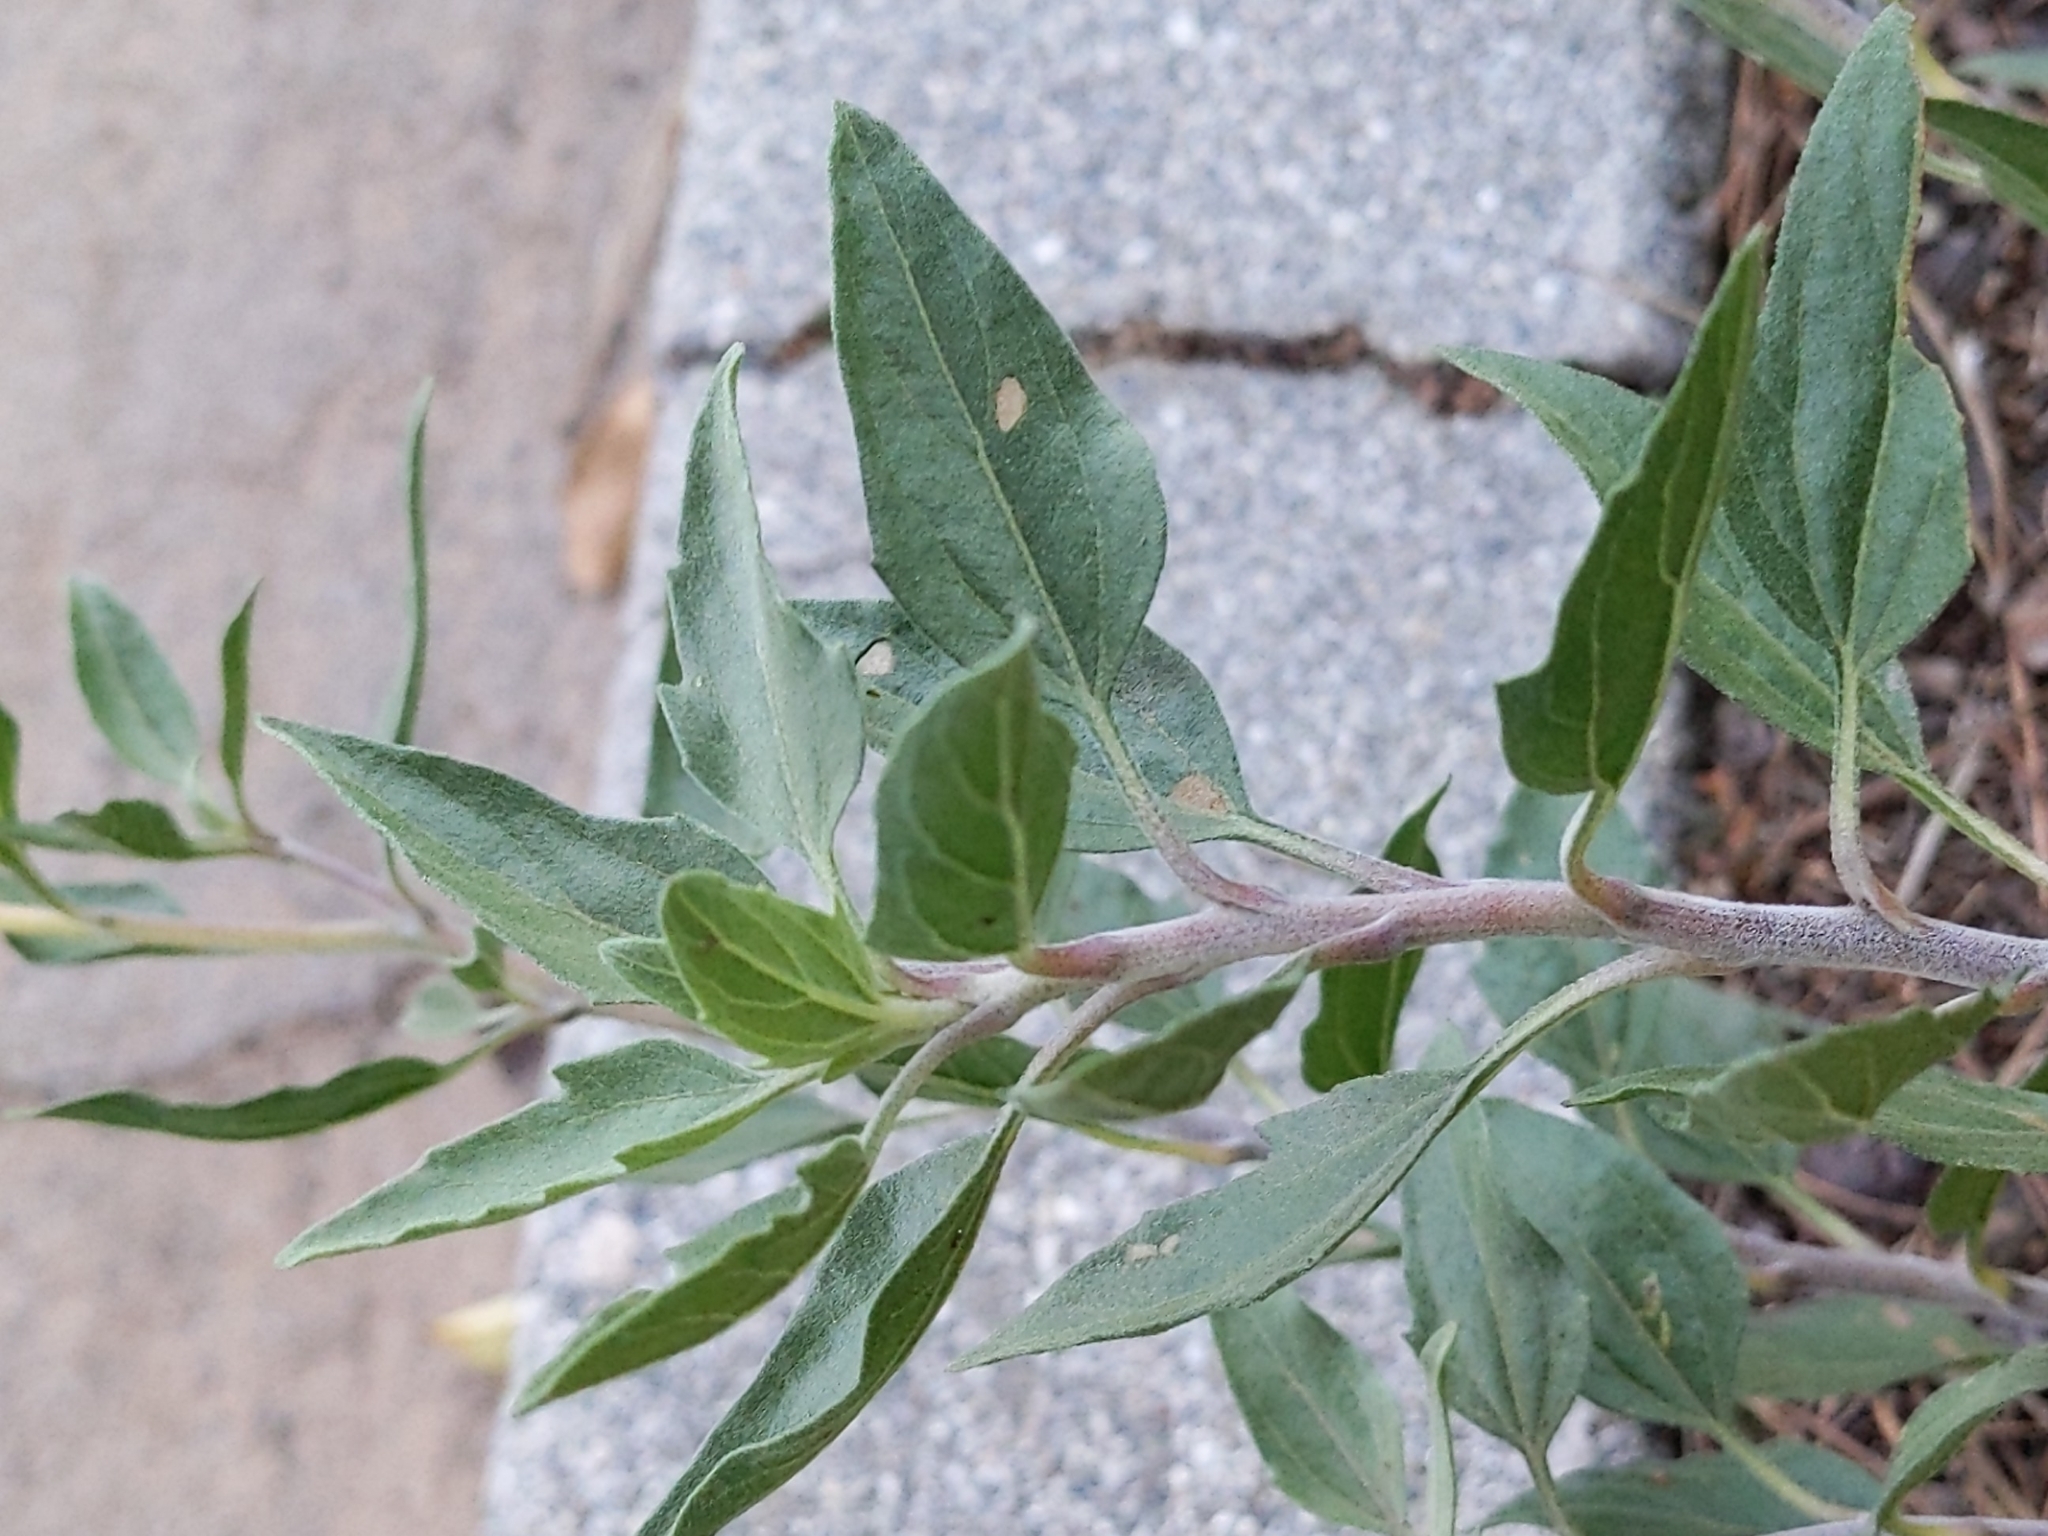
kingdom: Plantae
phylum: Tracheophyta
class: Magnoliopsida
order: Asterales
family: Asteraceae
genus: Encelia
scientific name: Encelia californica
